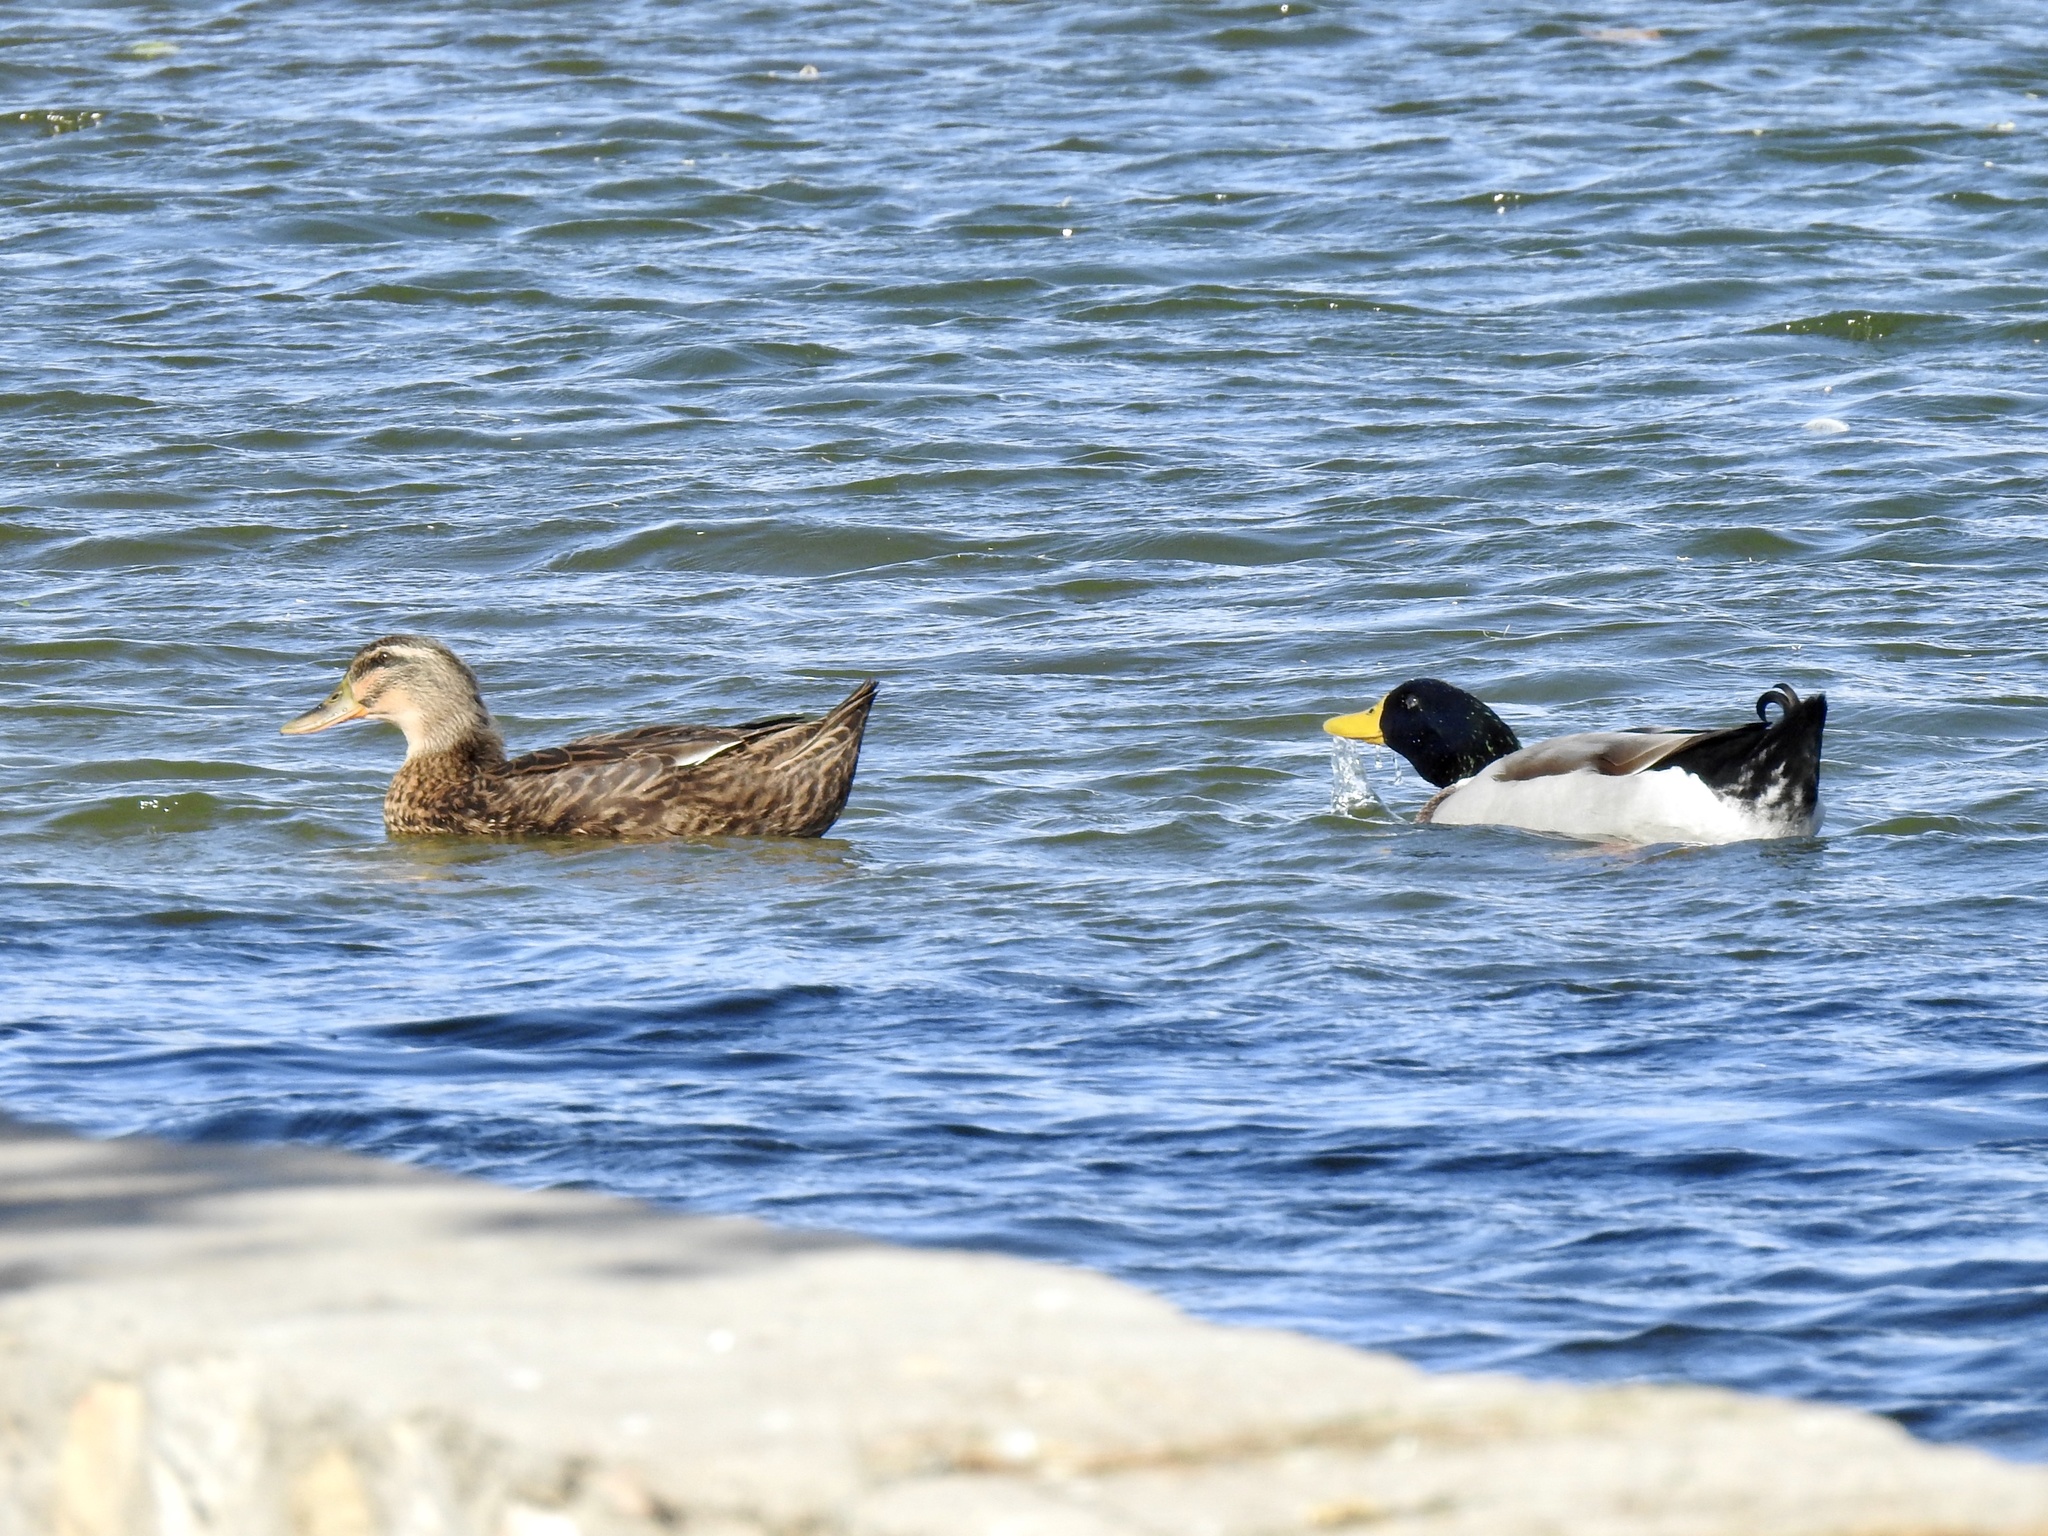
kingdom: Animalia
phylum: Chordata
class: Aves
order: Anseriformes
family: Anatidae
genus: Anas
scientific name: Anas platyrhynchos
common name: Mallard
